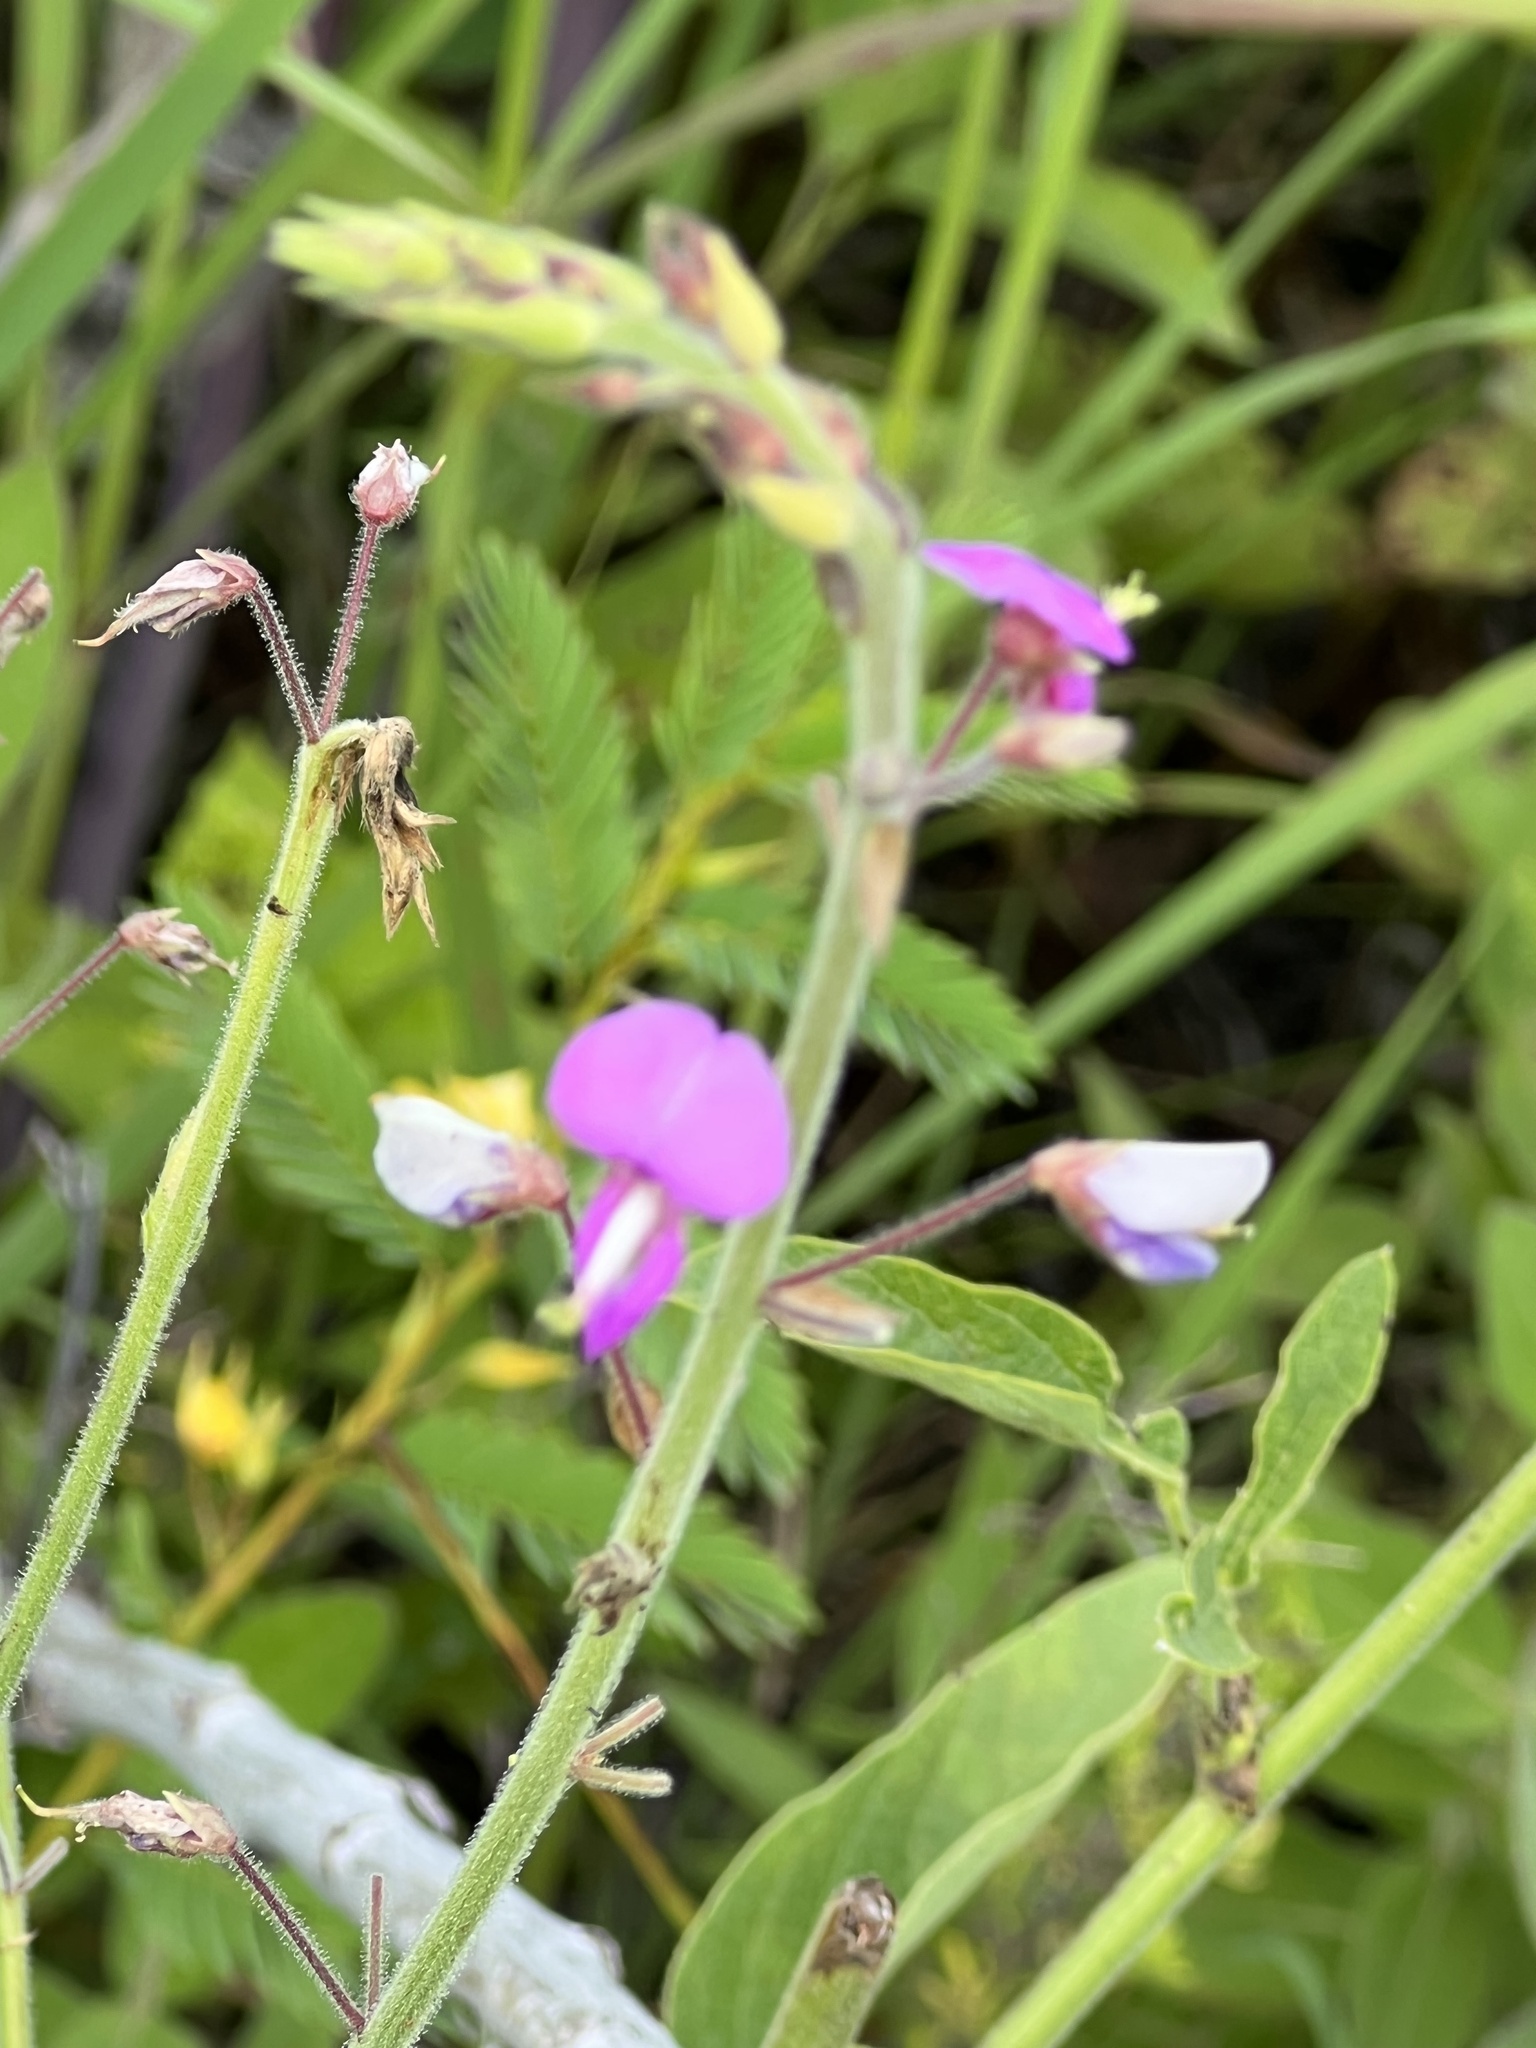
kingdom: Plantae
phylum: Tracheophyta
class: Magnoliopsida
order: Fabales
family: Fabaceae
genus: Desmodium
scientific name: Desmodium illinoense
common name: Illinois tick-clover
